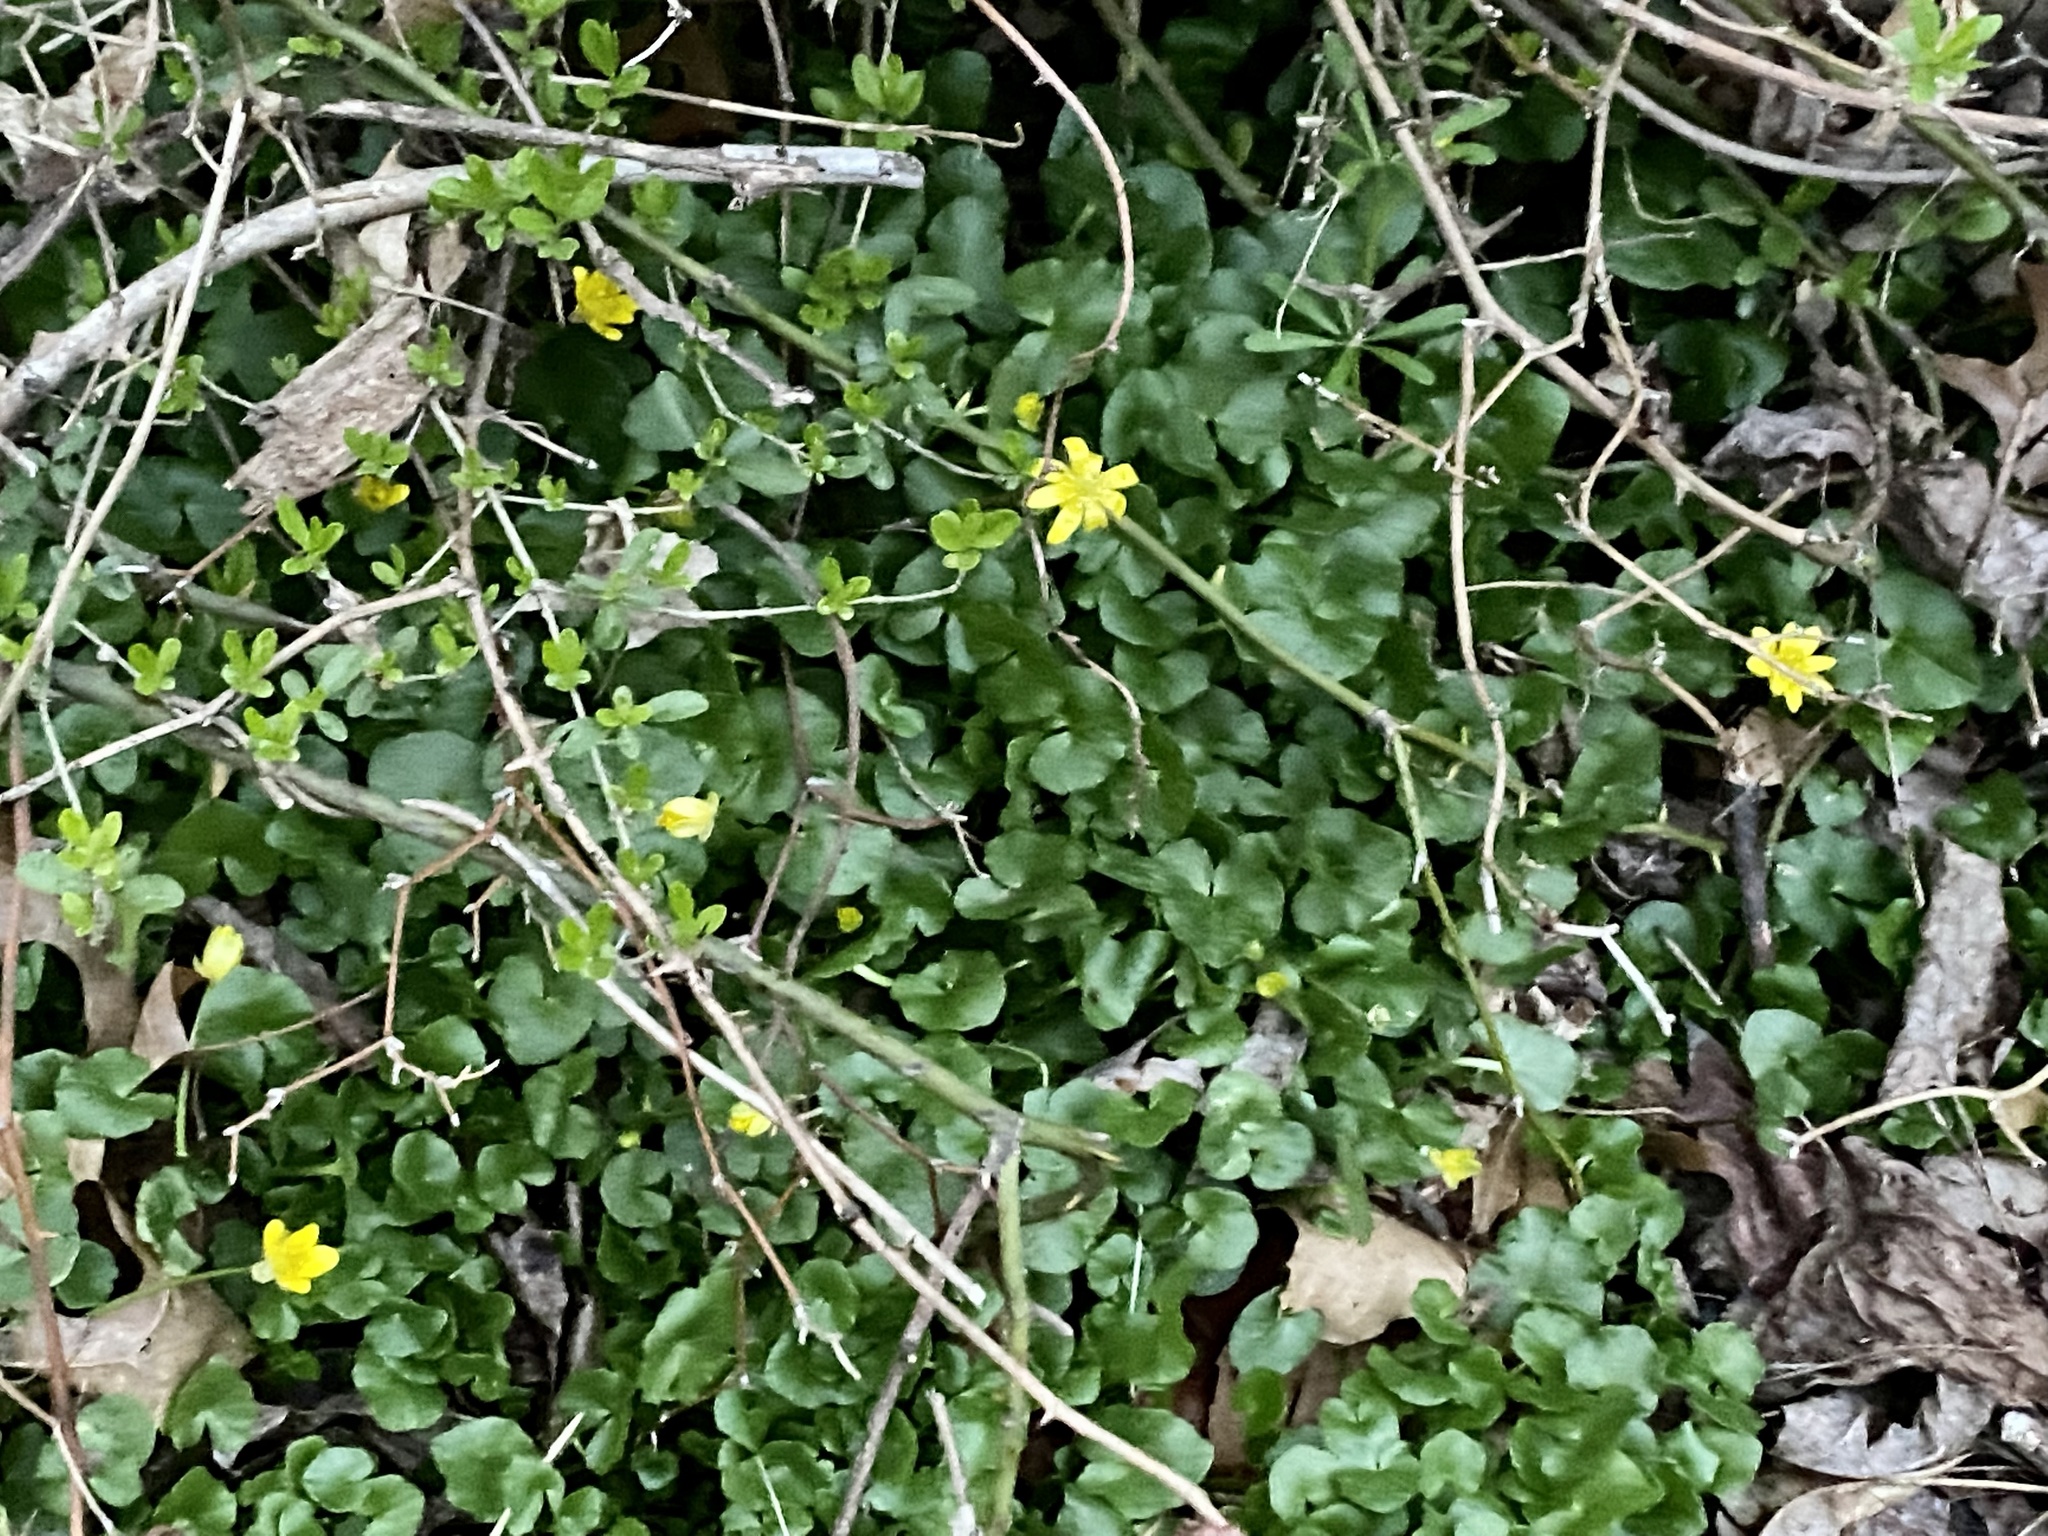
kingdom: Plantae
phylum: Tracheophyta
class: Magnoliopsida
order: Ranunculales
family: Ranunculaceae
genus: Ficaria
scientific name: Ficaria verna
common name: Lesser celandine
